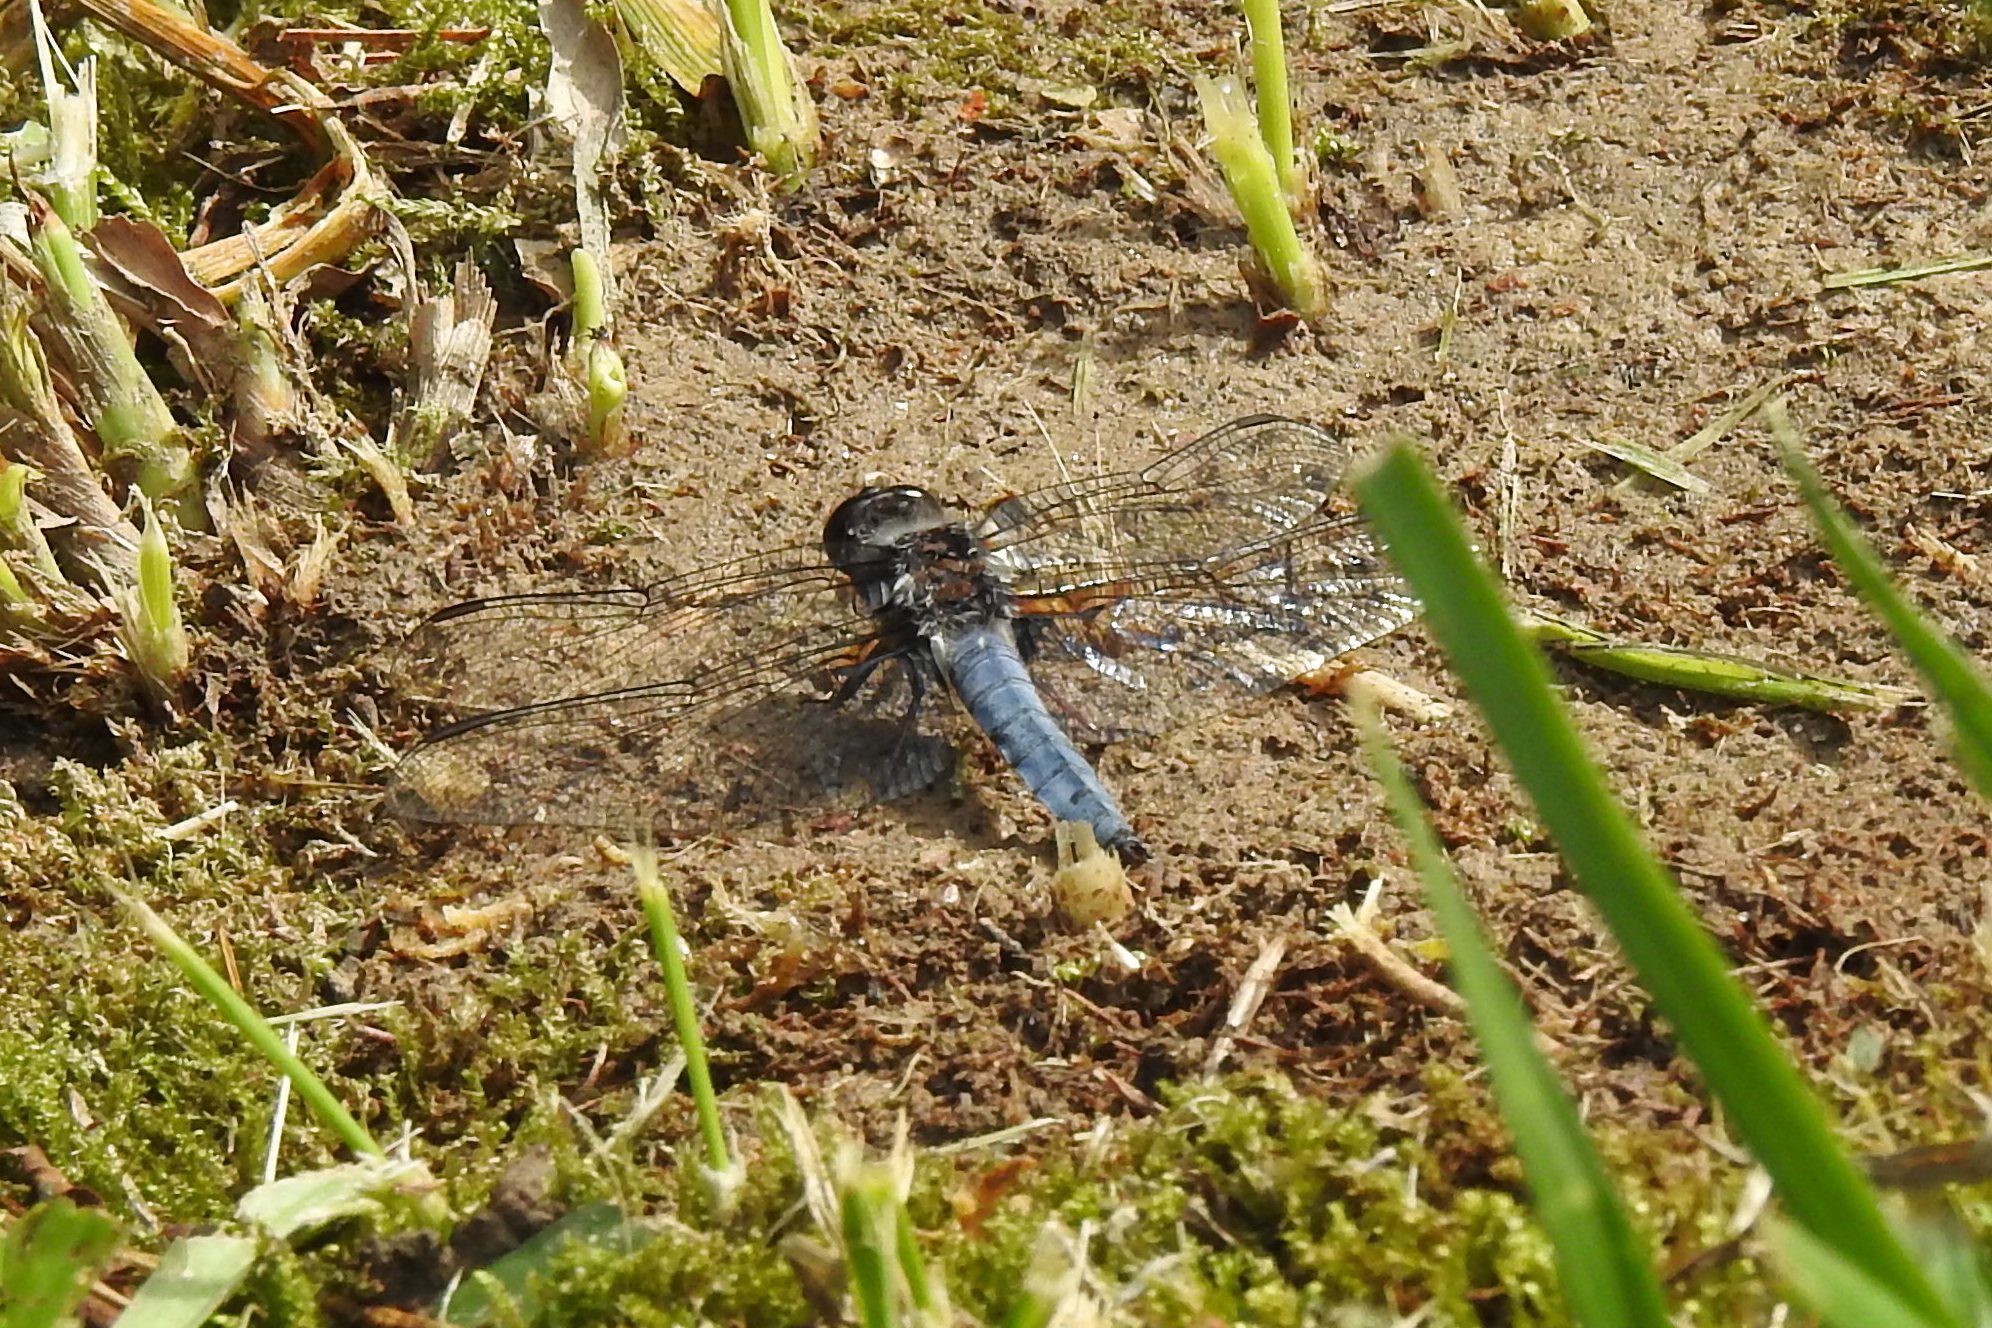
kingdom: Animalia
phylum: Arthropoda
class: Insecta
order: Odonata
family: Libellulidae
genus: Ladona
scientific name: Ladona deplanata
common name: Blue corporal
